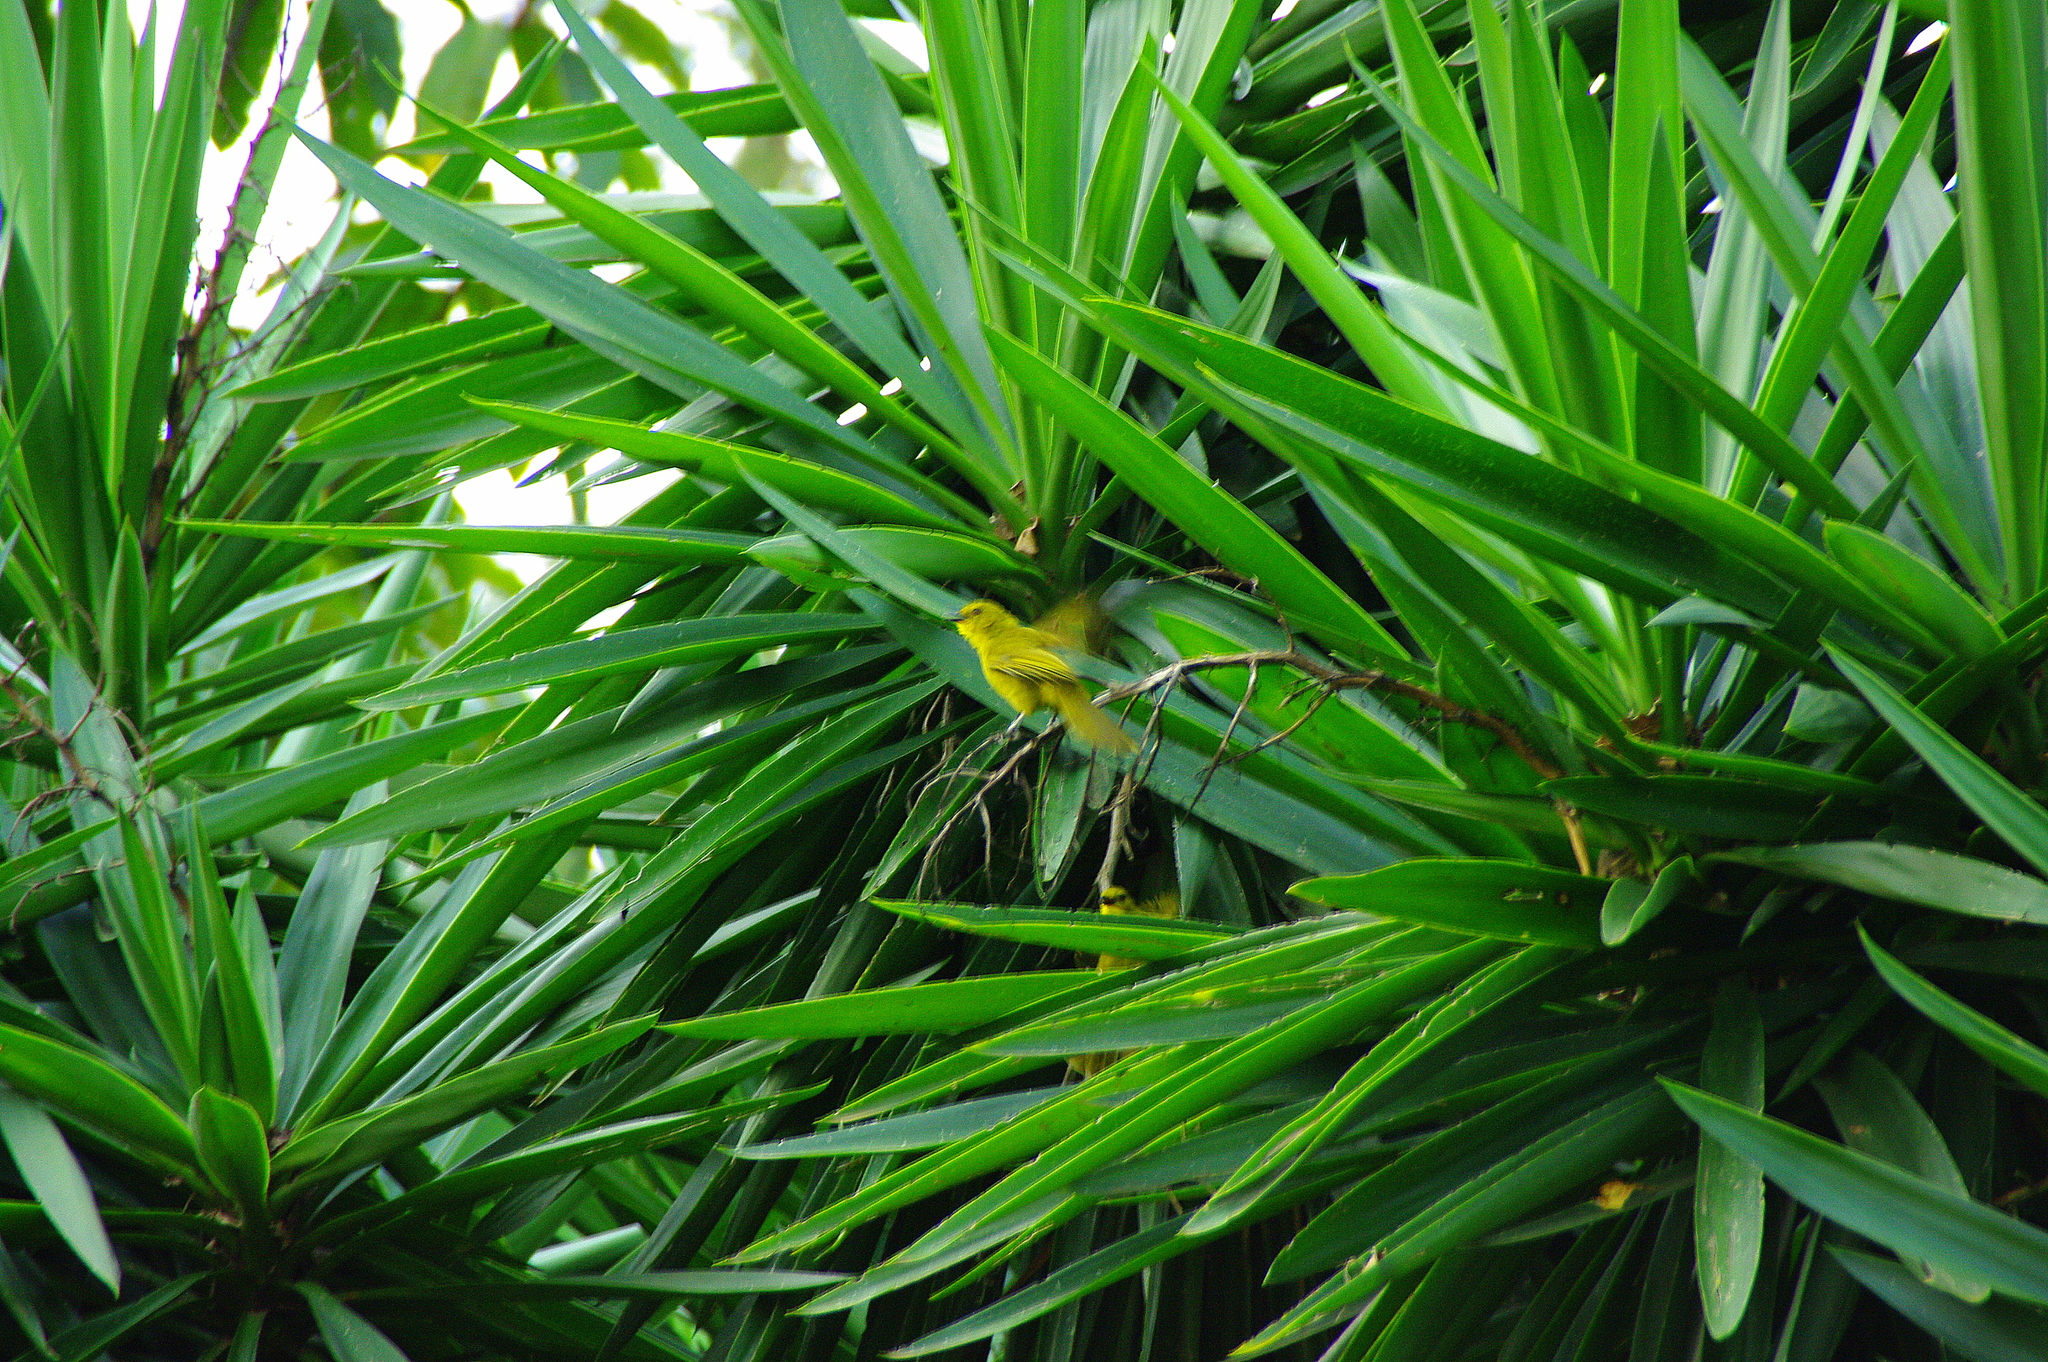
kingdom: Animalia
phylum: Chordata
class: Aves
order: Passeriformes
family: Pycnonotidae
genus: Chlorocichla
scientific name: Chlorocichla laetissima
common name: Joyful greenbul
